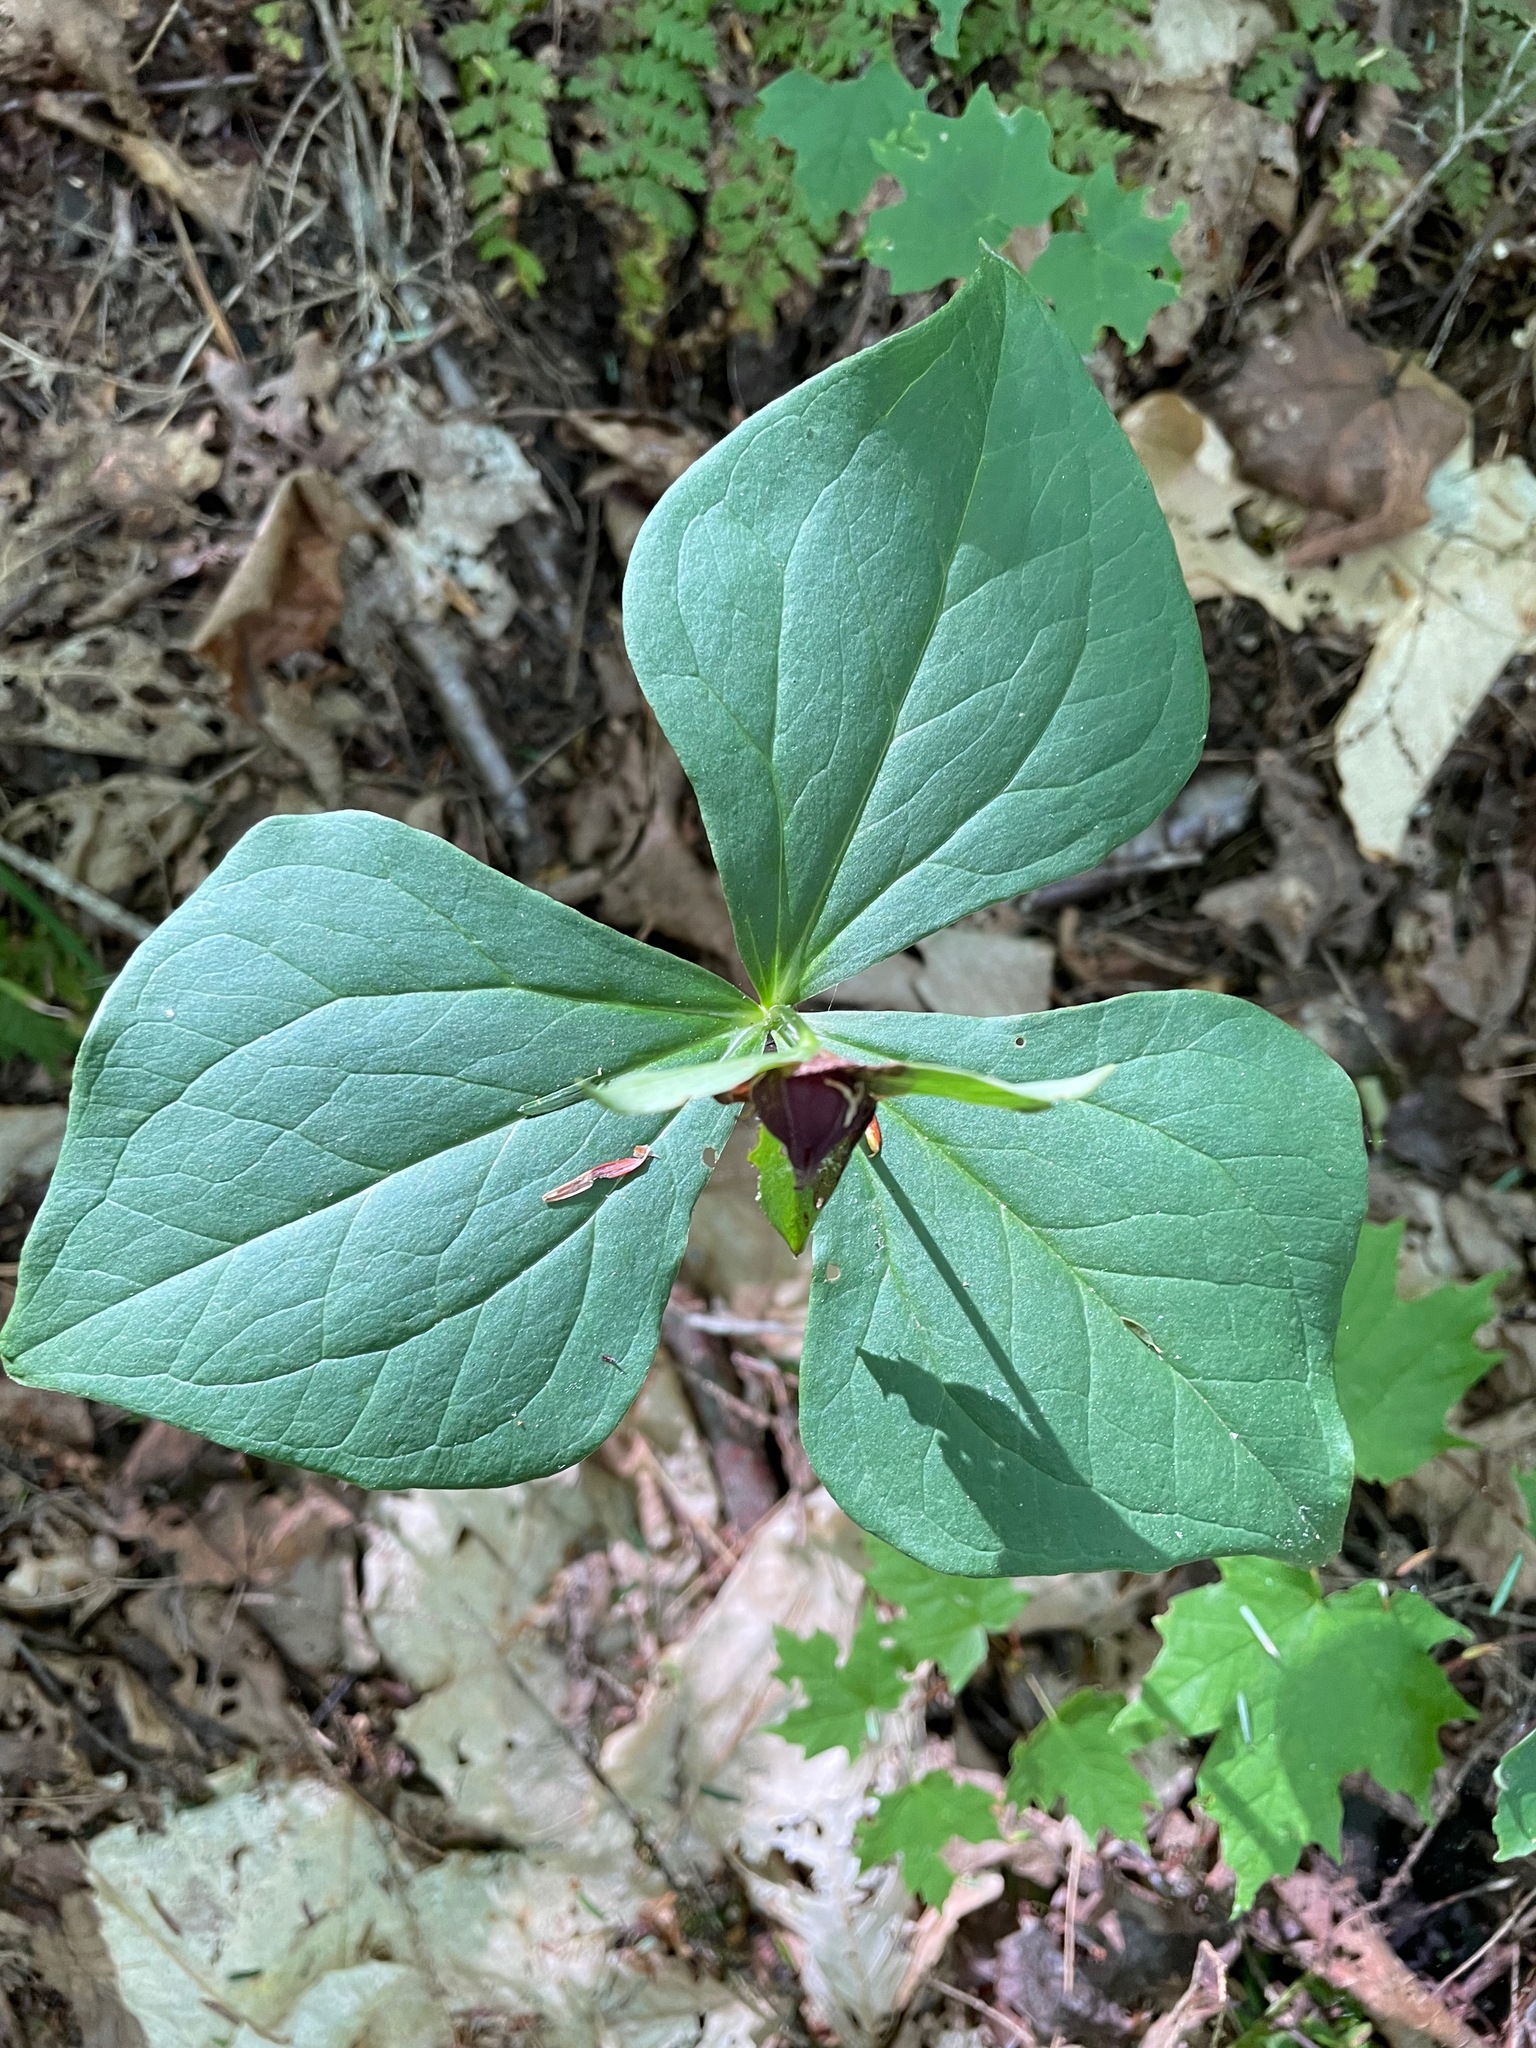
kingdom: Plantae
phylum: Tracheophyta
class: Liliopsida
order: Liliales
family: Melanthiaceae
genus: Trillium
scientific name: Trillium erectum
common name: Purple trillium
